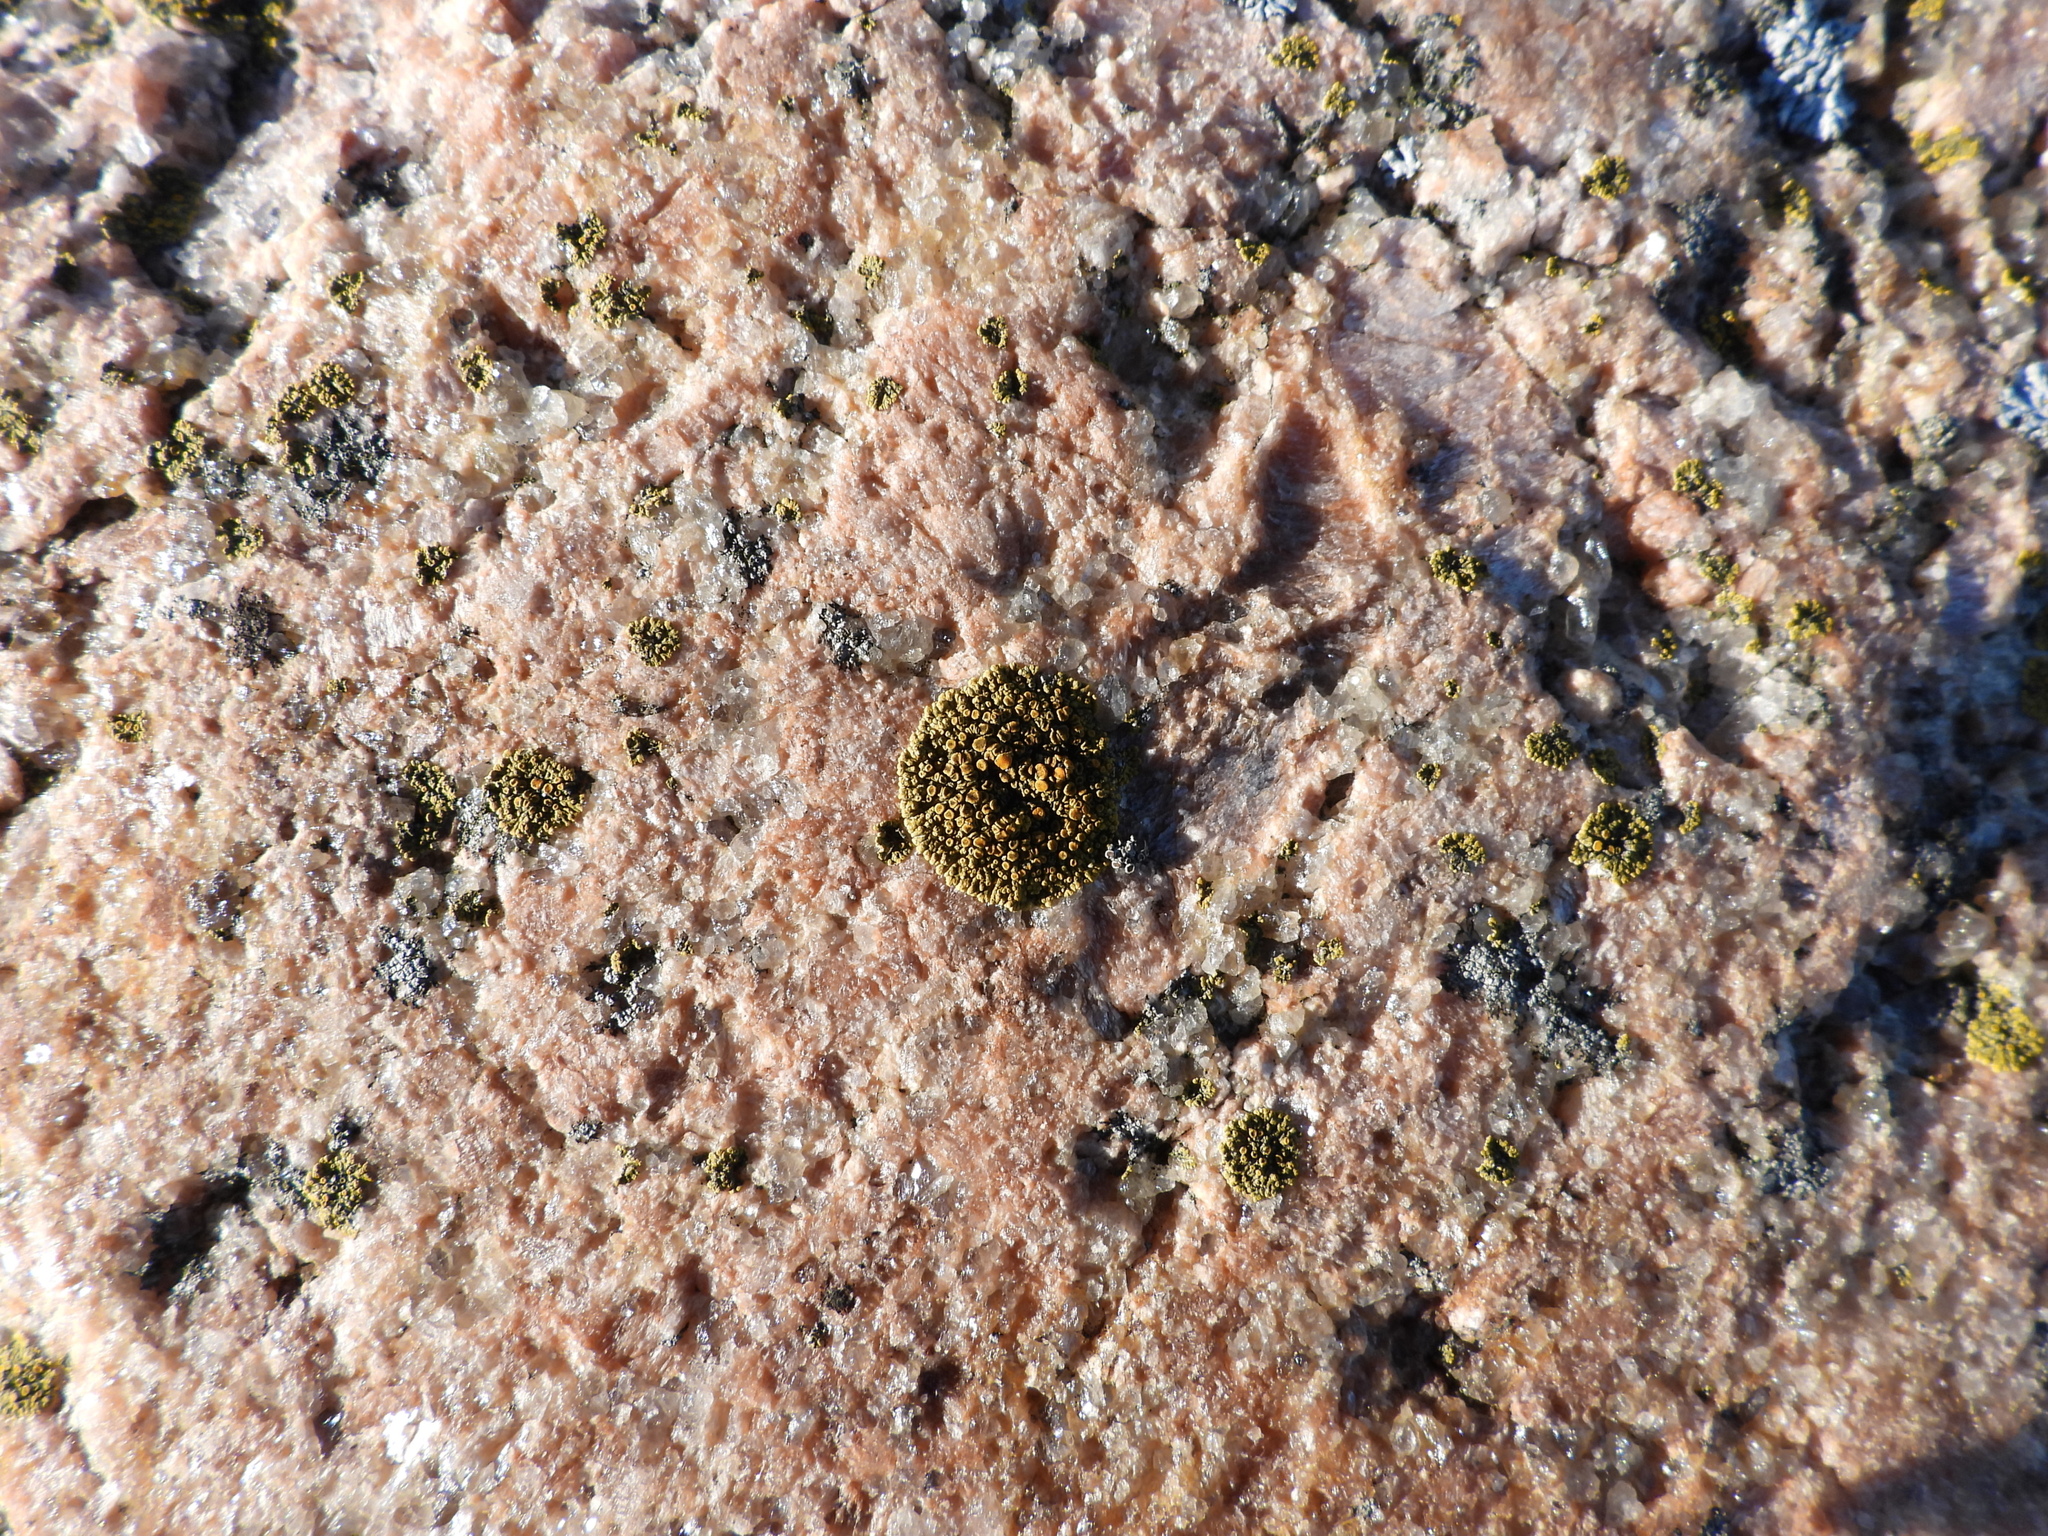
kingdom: Fungi
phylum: Ascomycota
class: Lecanoromycetes
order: Teloschistales
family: Teloschistaceae
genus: Athallia
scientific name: Athallia scopularis
